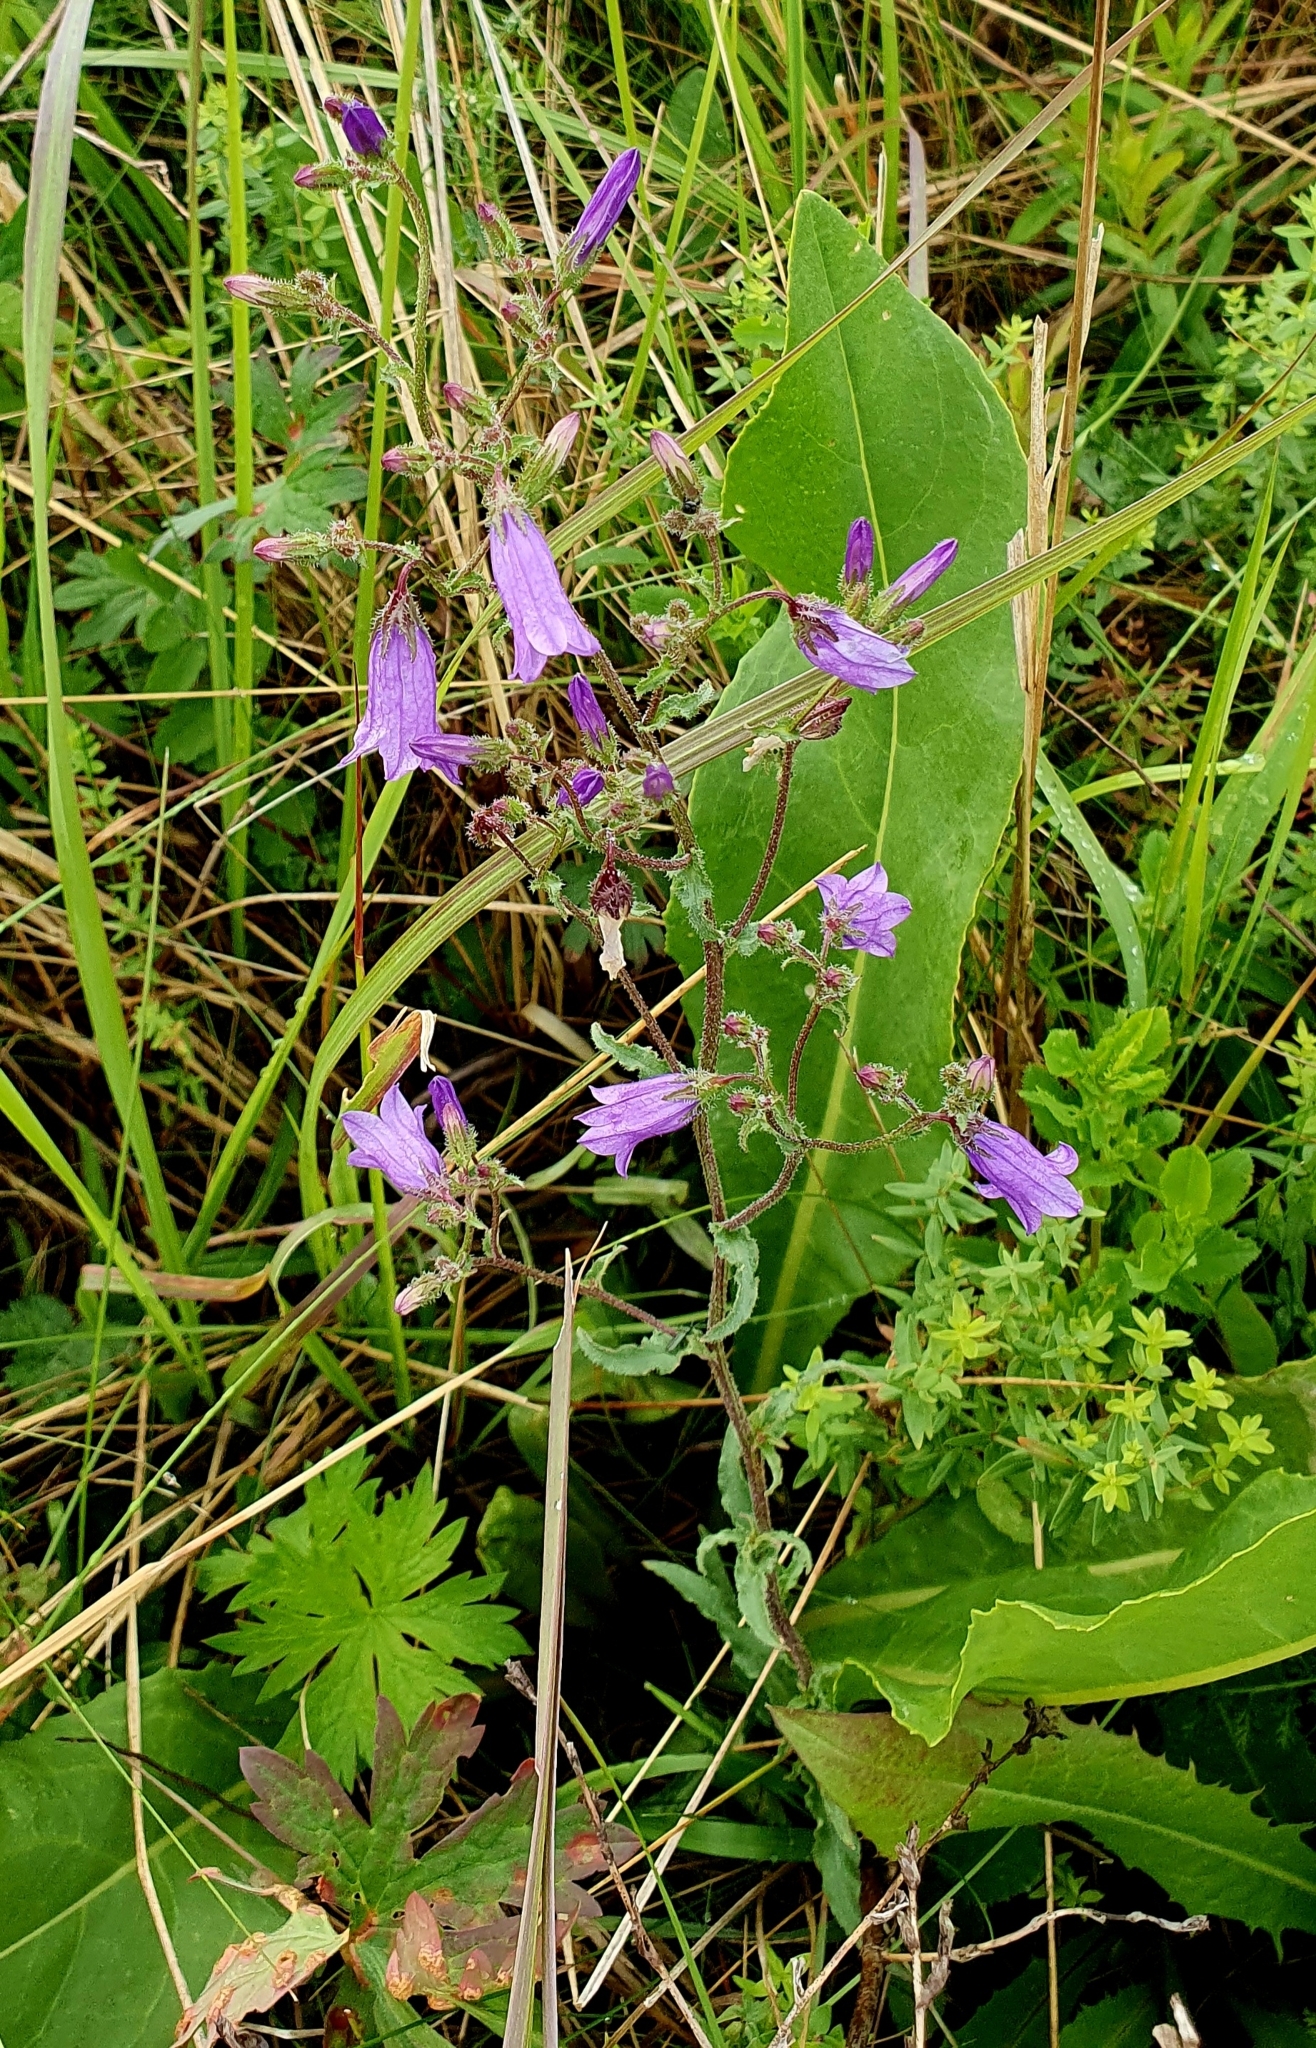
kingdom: Plantae
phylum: Tracheophyta
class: Magnoliopsida
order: Asterales
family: Campanulaceae
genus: Campanula
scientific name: Campanula sibirica
